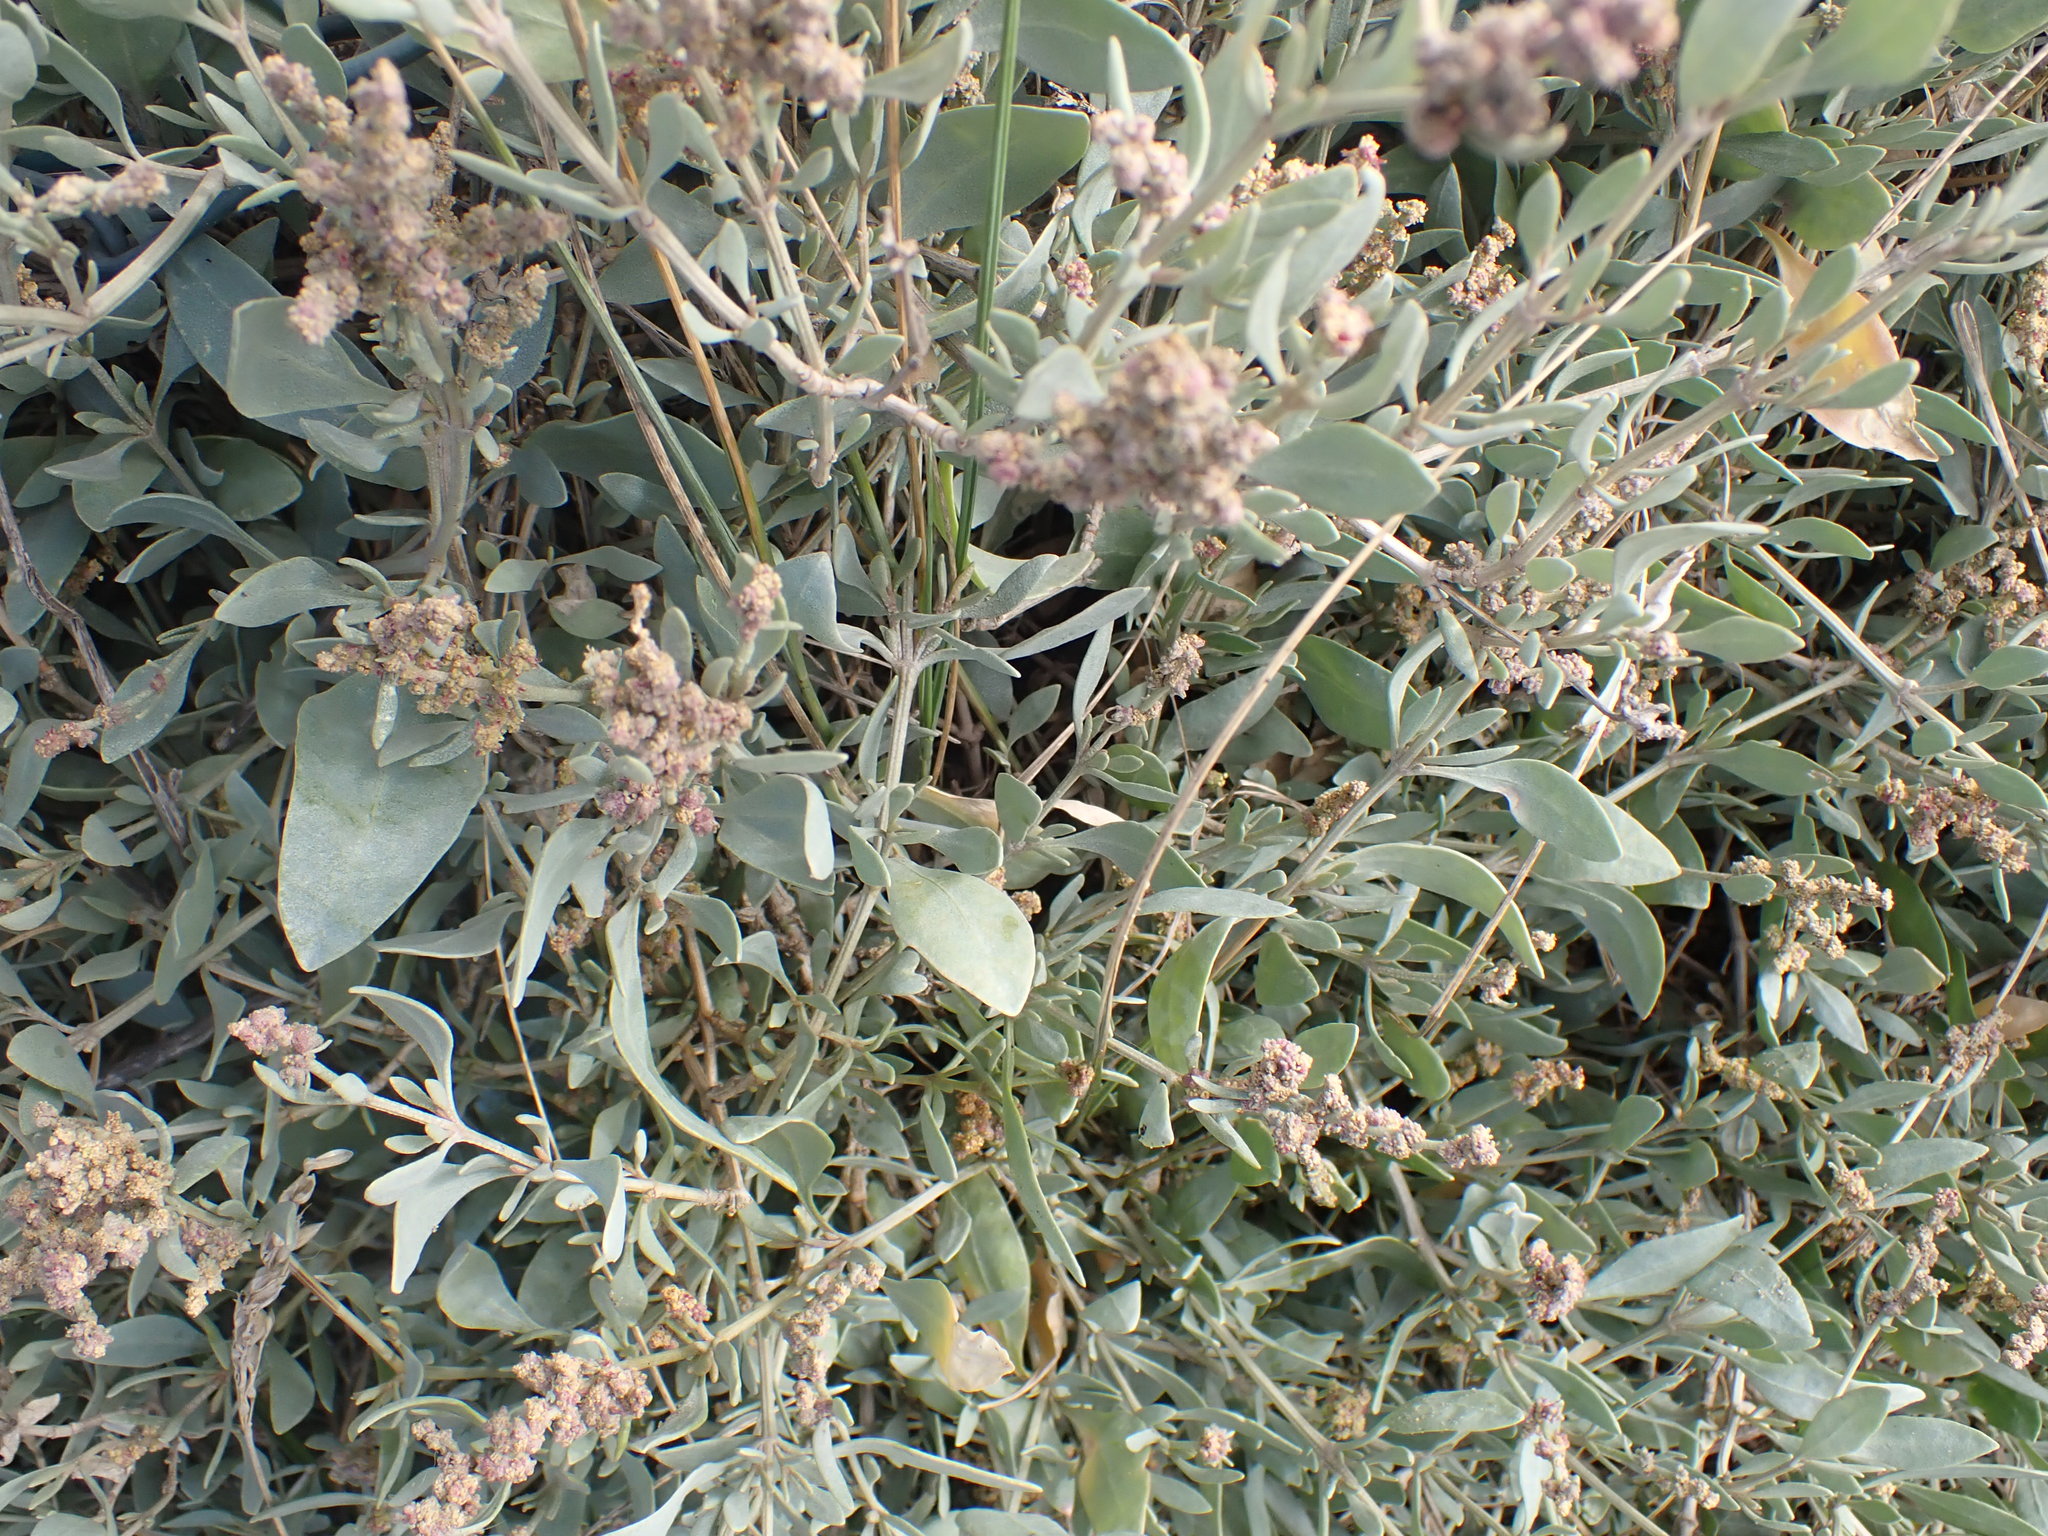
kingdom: Plantae
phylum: Tracheophyta
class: Magnoliopsida
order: Caryophyllales
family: Amaranthaceae
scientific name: Amaranthaceae
